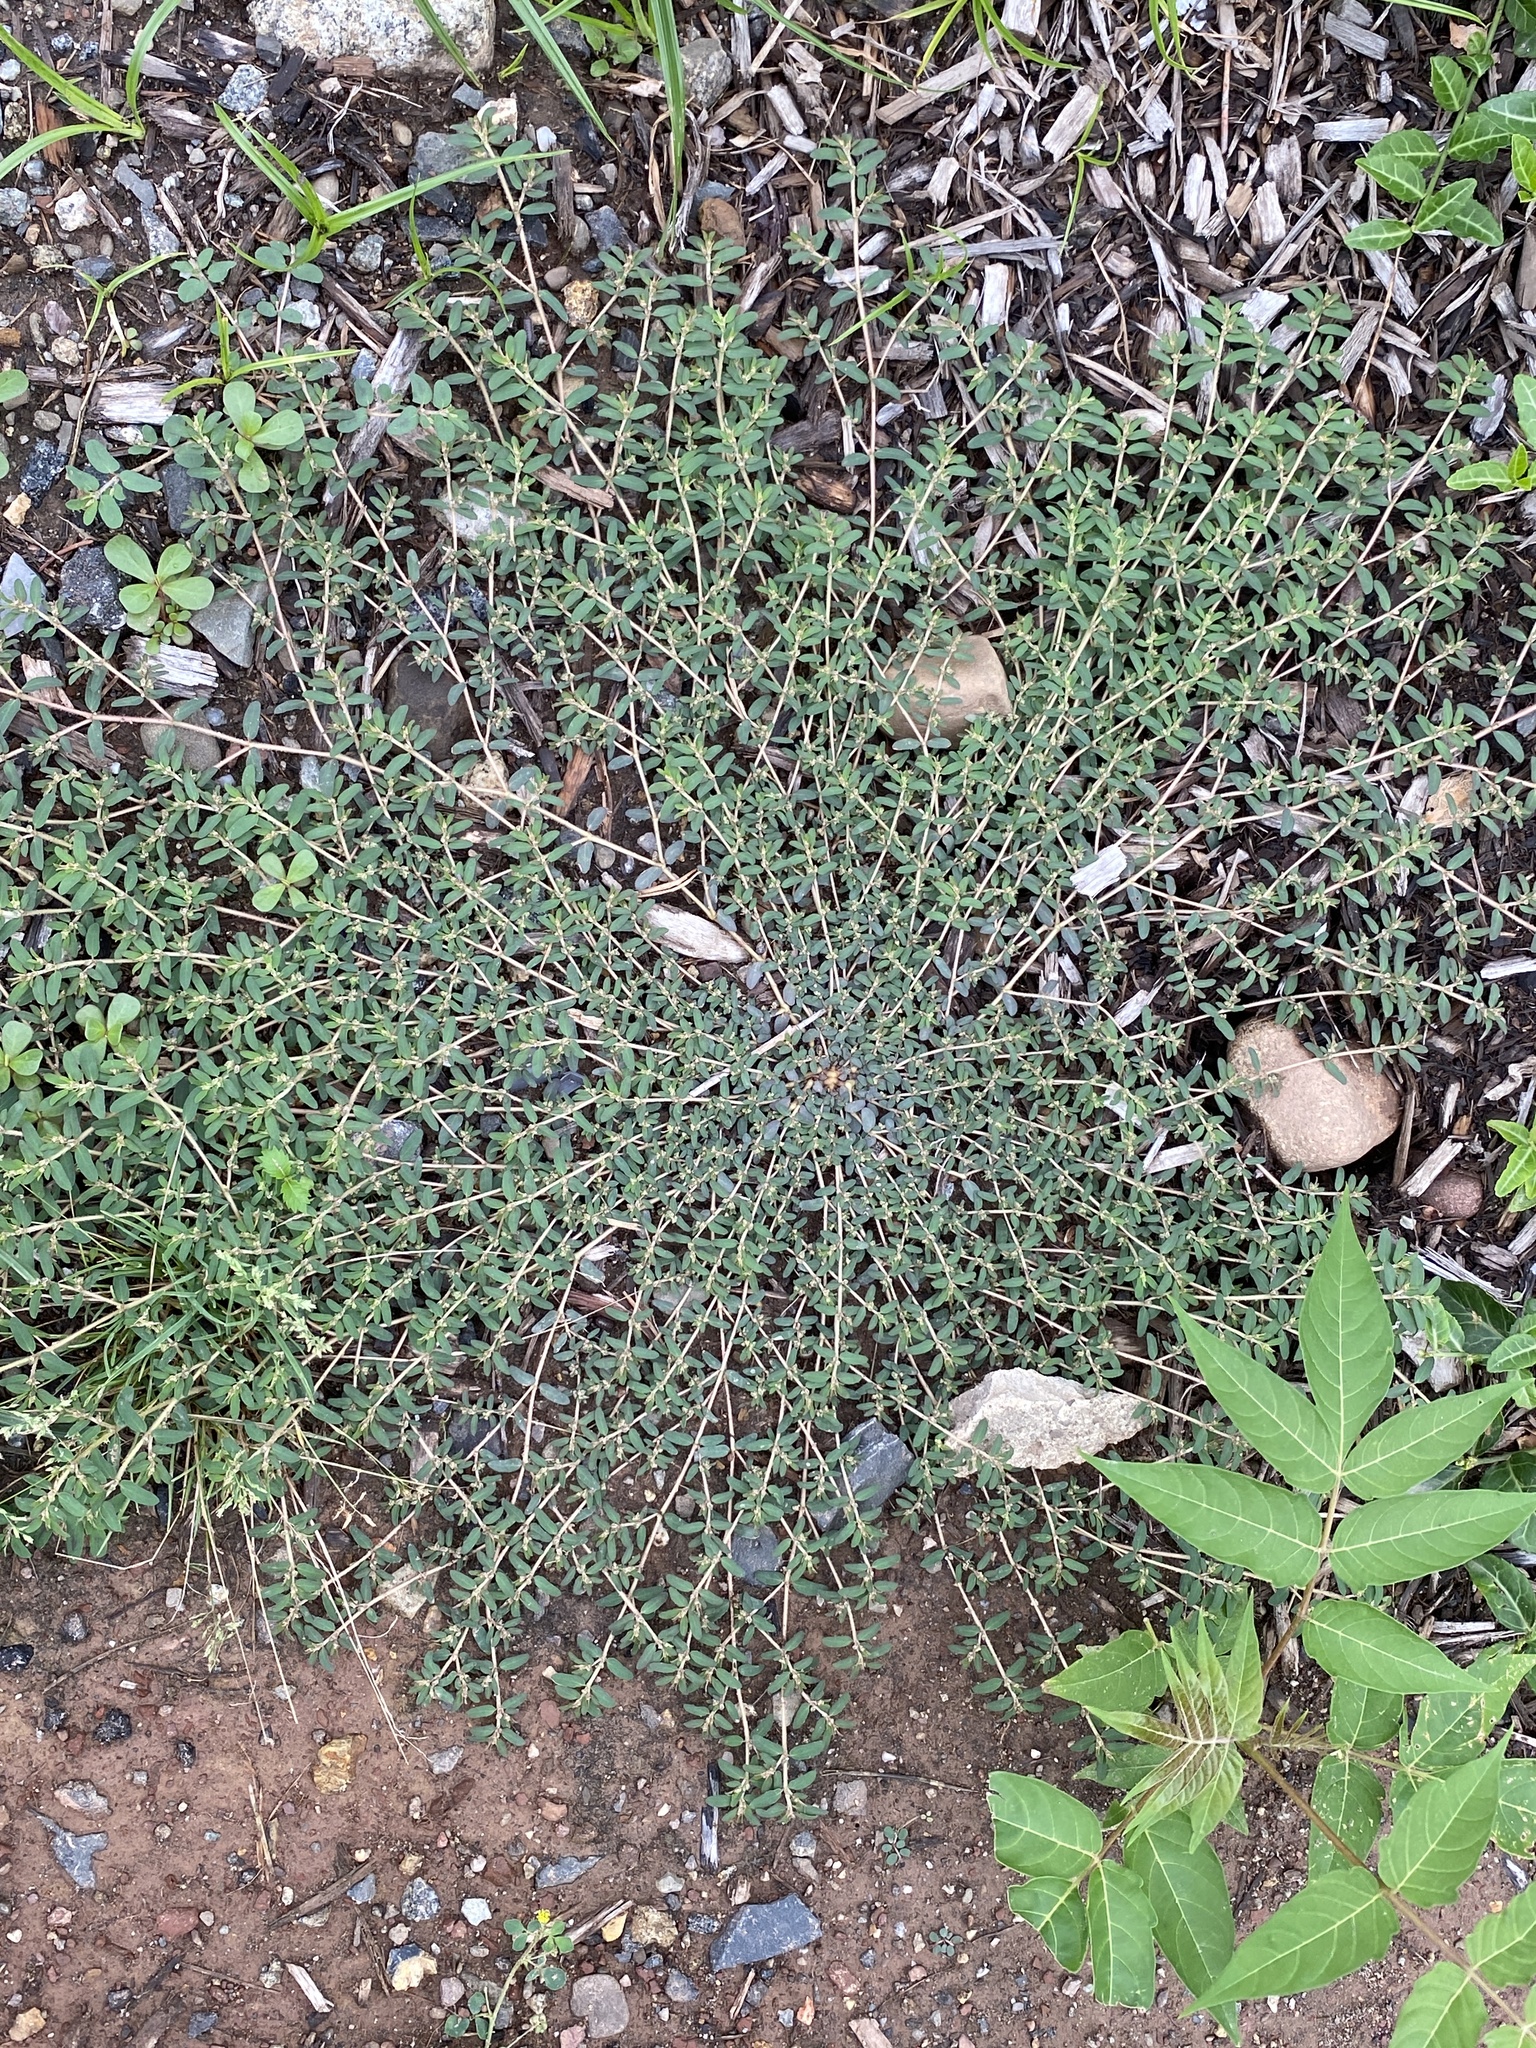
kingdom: Plantae
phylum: Tracheophyta
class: Magnoliopsida
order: Malpighiales
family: Euphorbiaceae
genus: Euphorbia
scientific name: Euphorbia maculata
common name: Spotted spurge
